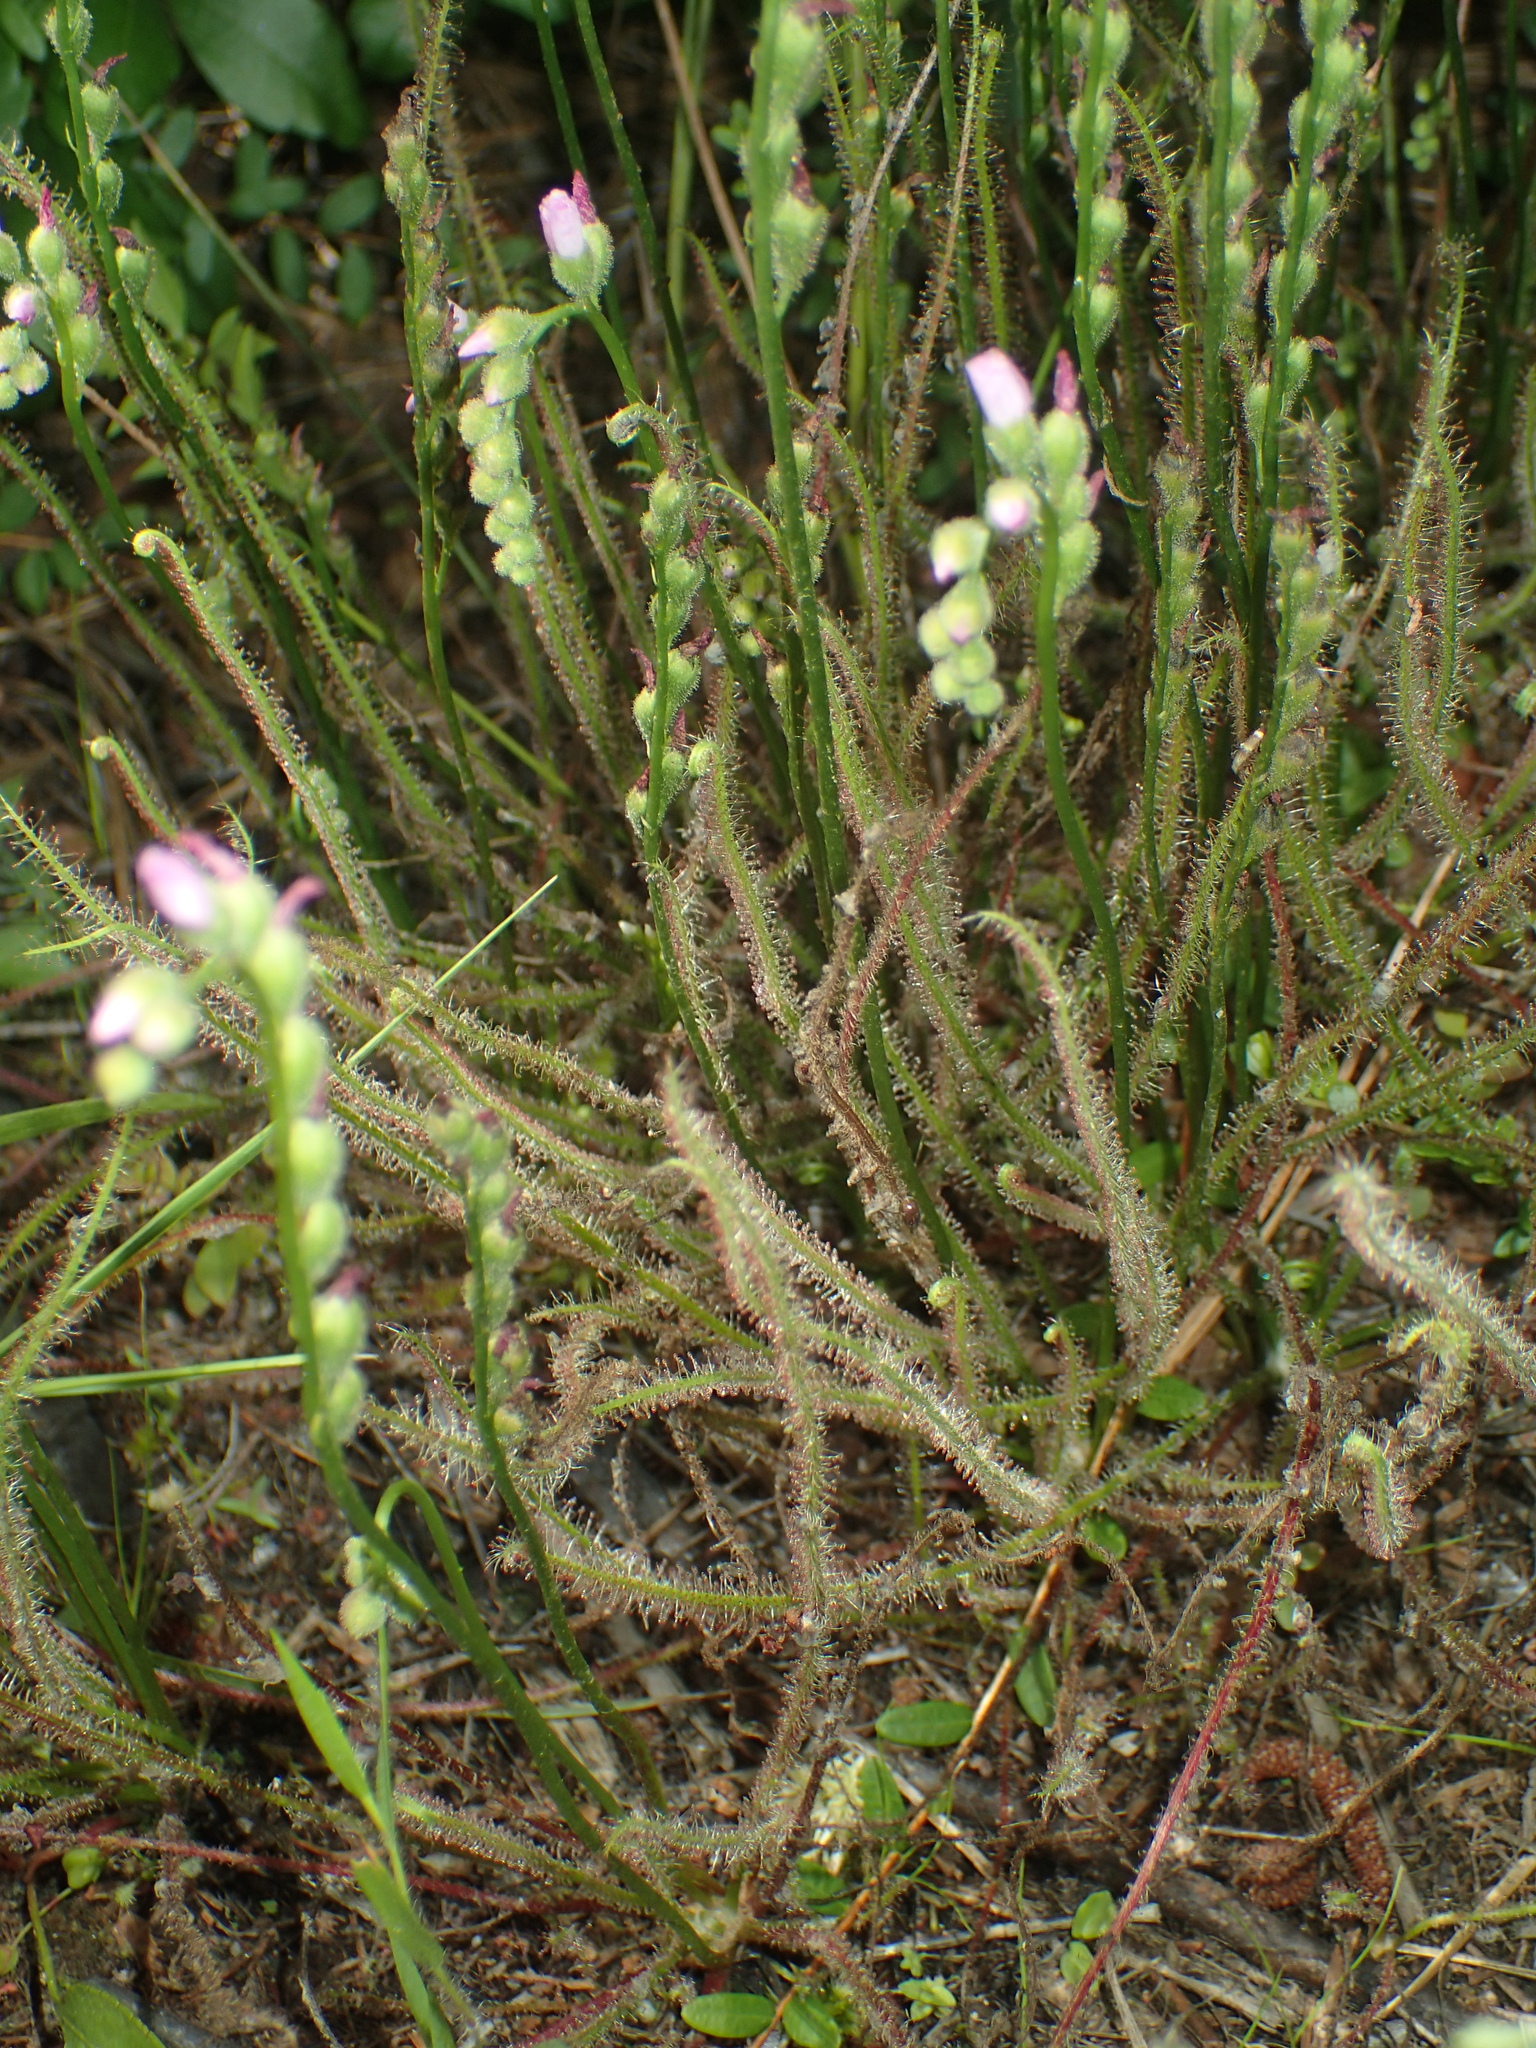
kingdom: Plantae
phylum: Tracheophyta
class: Magnoliopsida
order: Caryophyllales
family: Droseraceae
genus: Drosera
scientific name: Drosera filiformis
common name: Dew-thread
